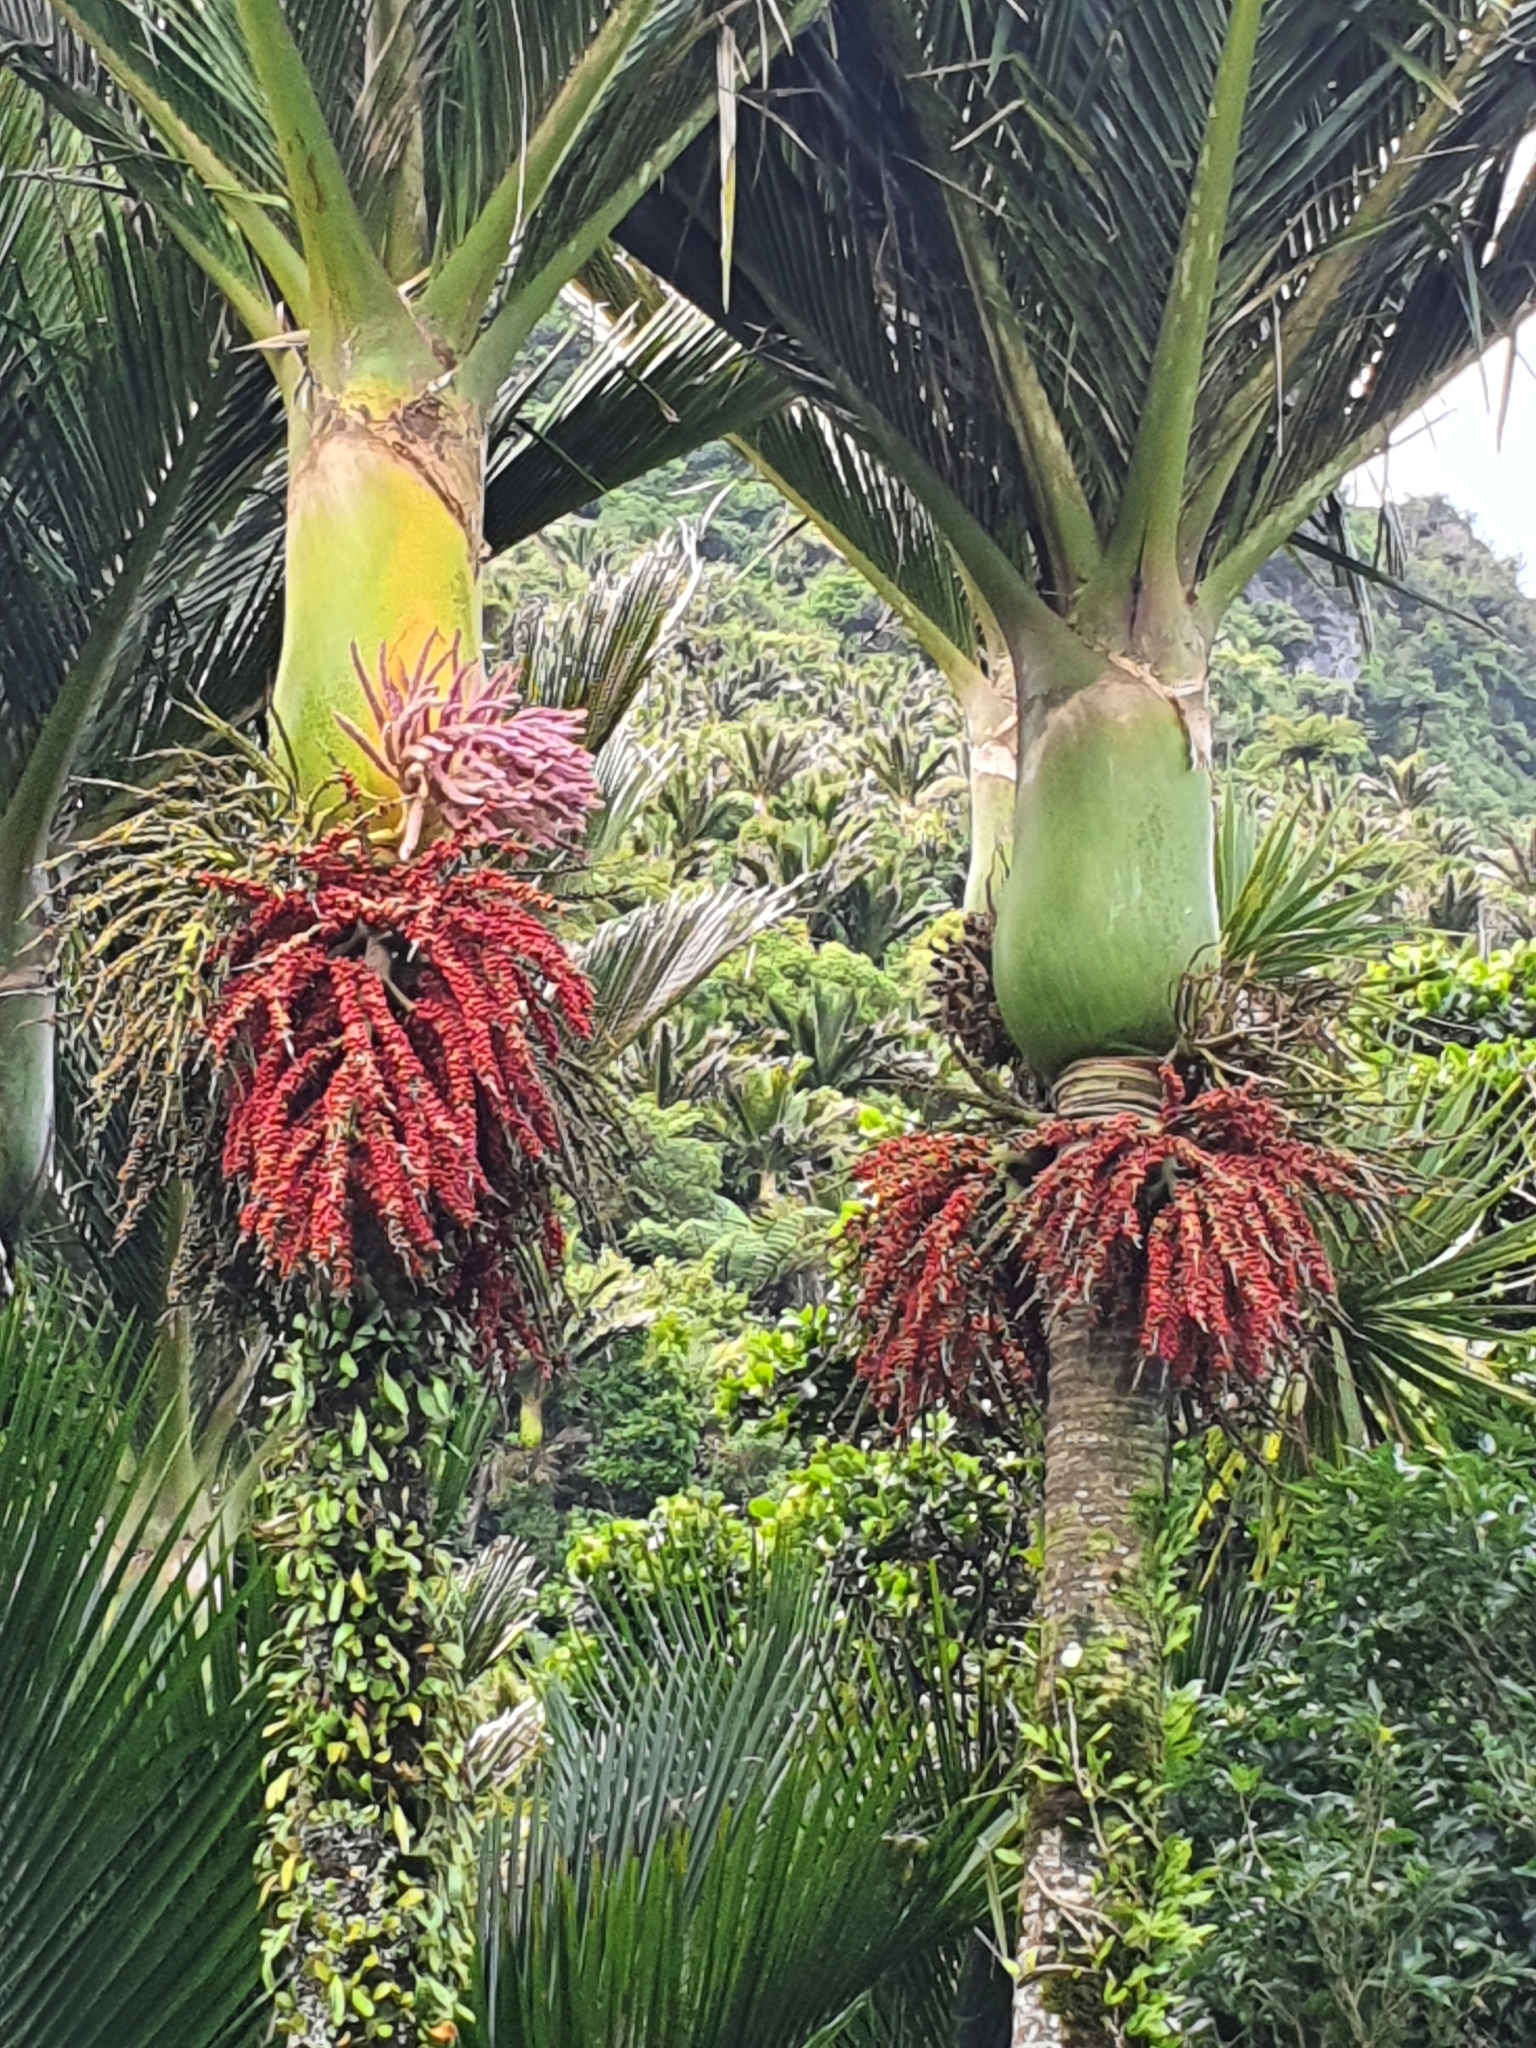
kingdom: Plantae
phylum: Tracheophyta
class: Liliopsida
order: Arecales
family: Arecaceae
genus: Rhopalostylis
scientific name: Rhopalostylis sapida
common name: Feather-duster palm
